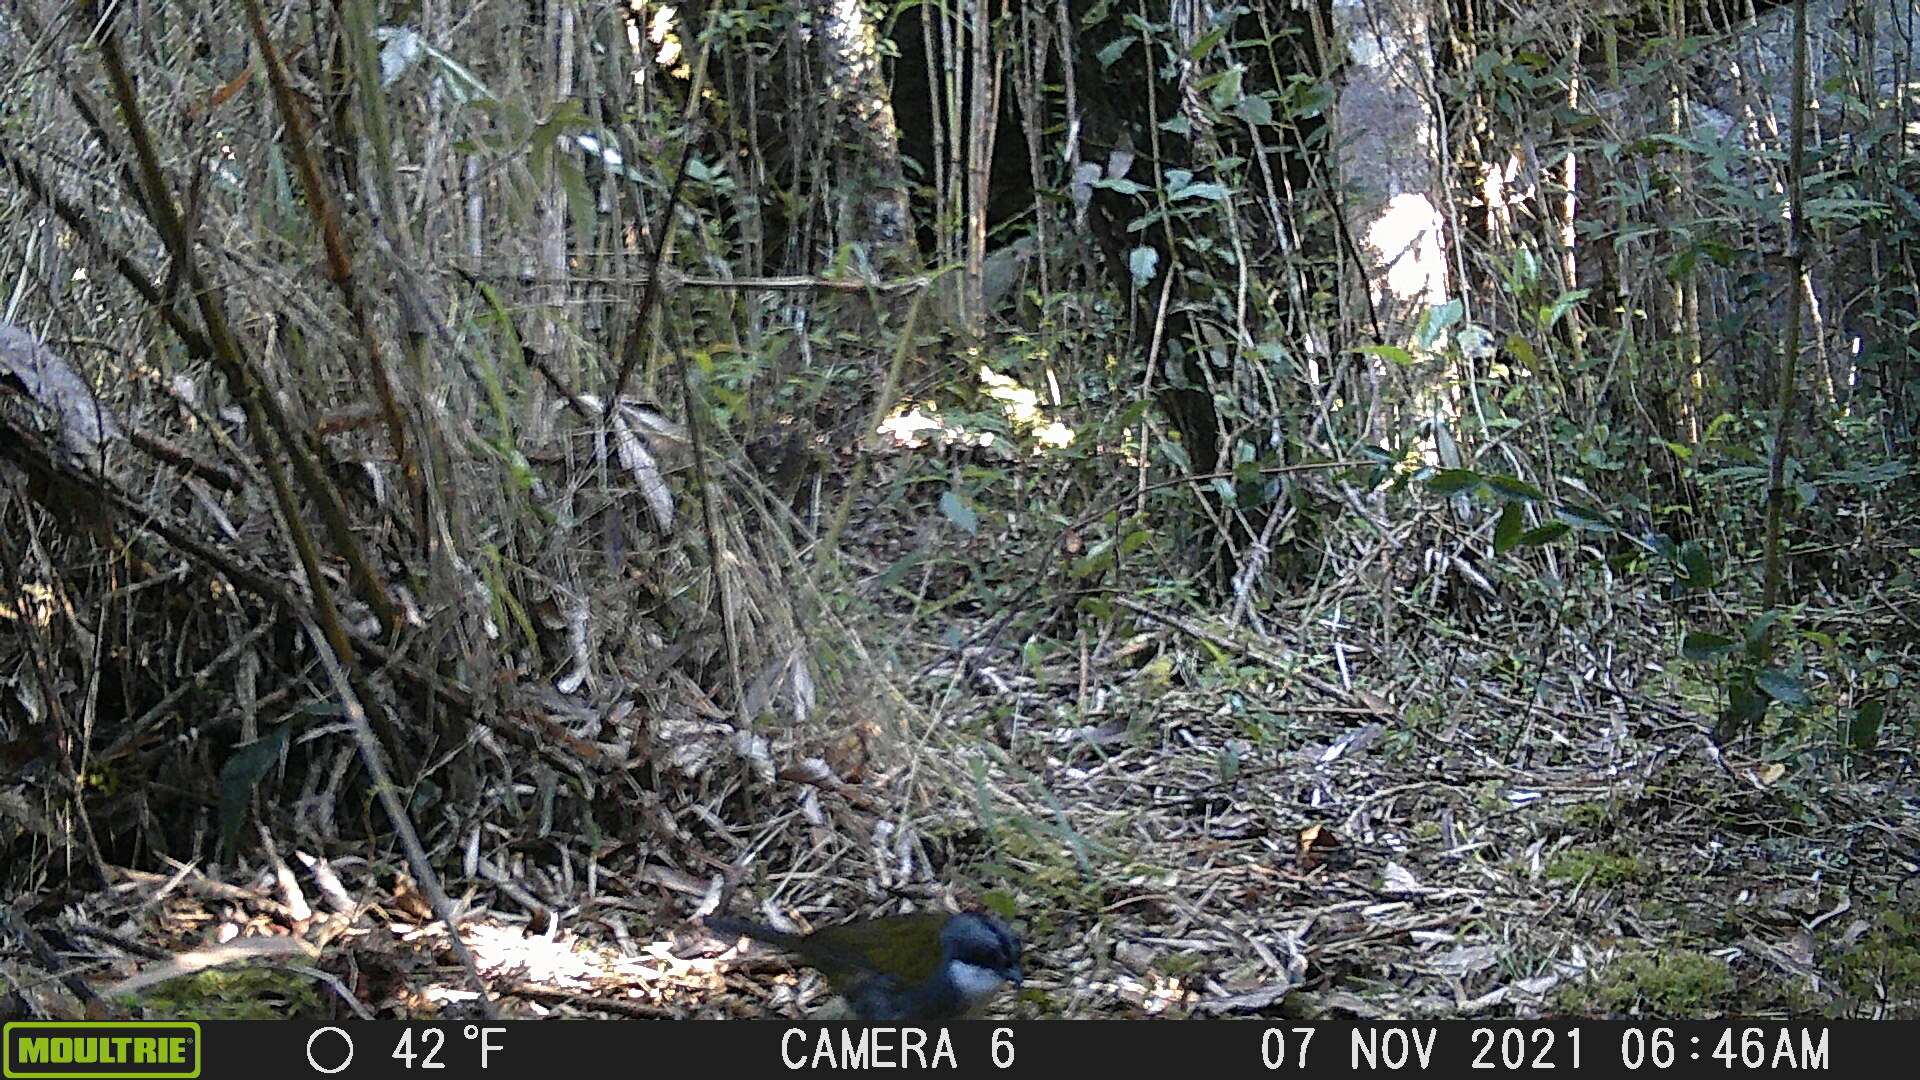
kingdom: Animalia
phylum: Chordata
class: Aves
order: Passeriformes
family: Passerellidae
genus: Arremon
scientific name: Arremon assimilis
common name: Grey-browed brushfinch
